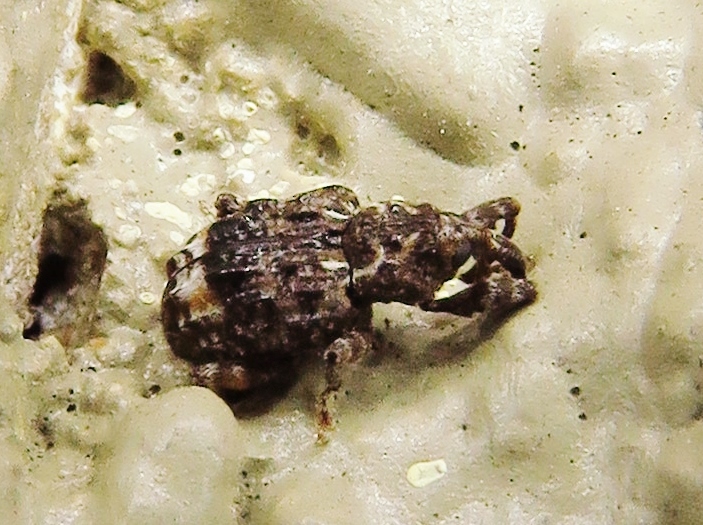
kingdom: Animalia
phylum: Arthropoda
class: Insecta
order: Coleoptera
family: Curculionidae
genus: Conotrachelus
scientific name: Conotrachelus nenuphar
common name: Plum curculio
